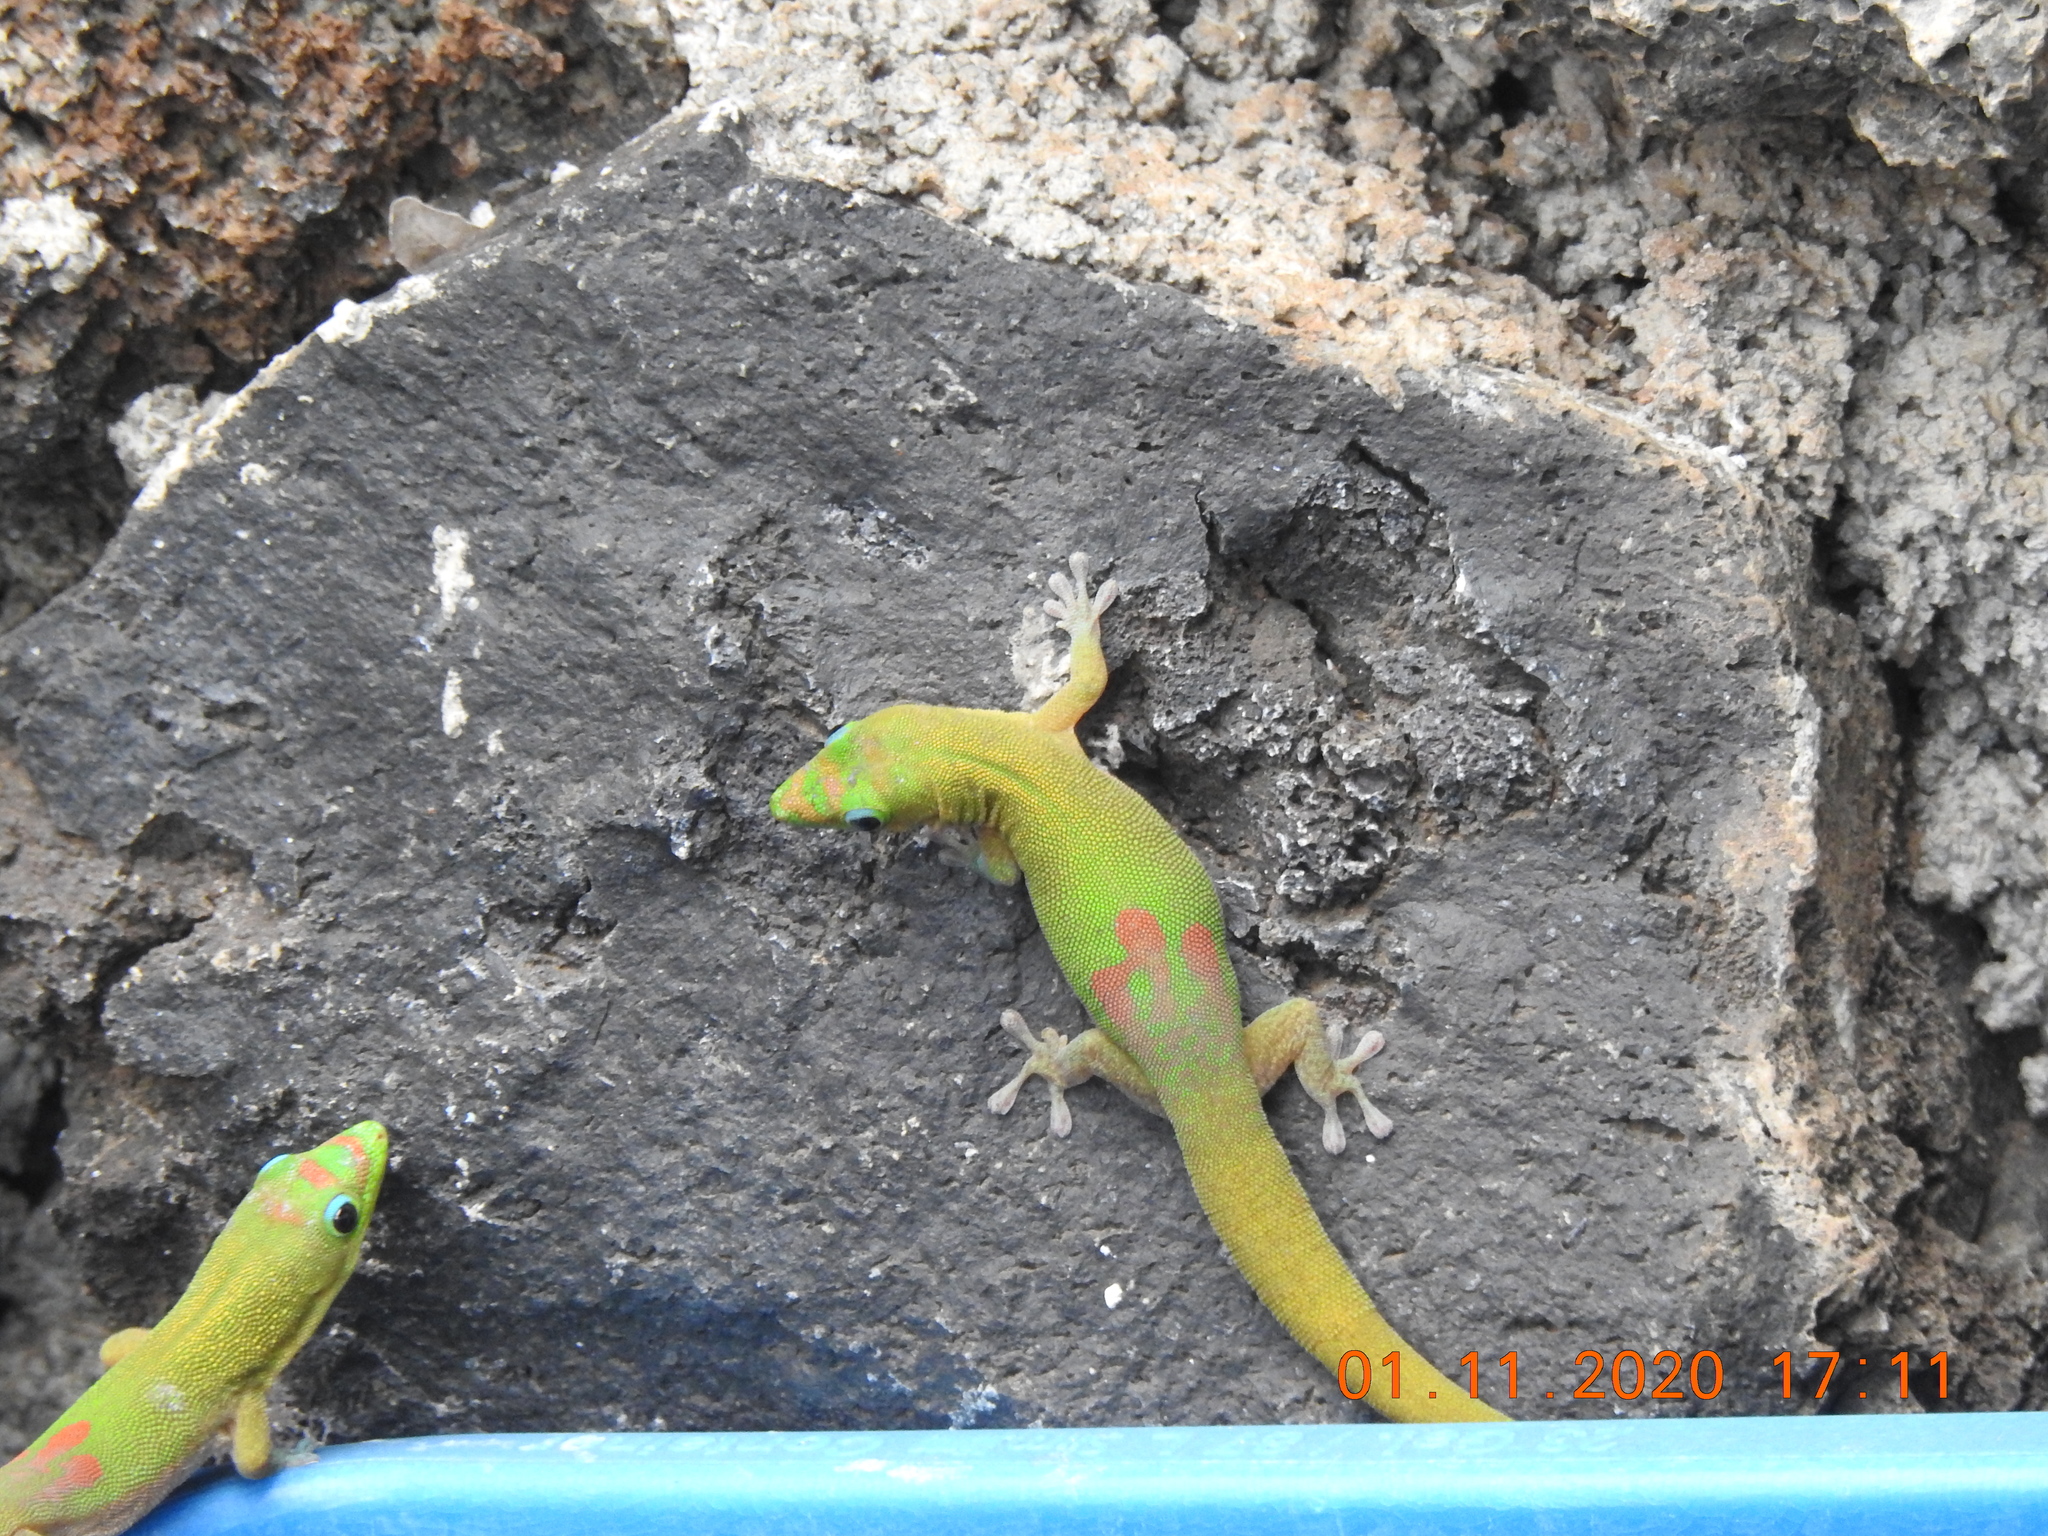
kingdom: Animalia
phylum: Chordata
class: Squamata
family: Gekkonidae
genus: Phelsuma
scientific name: Phelsuma laticauda
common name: Gold dust day gecko
